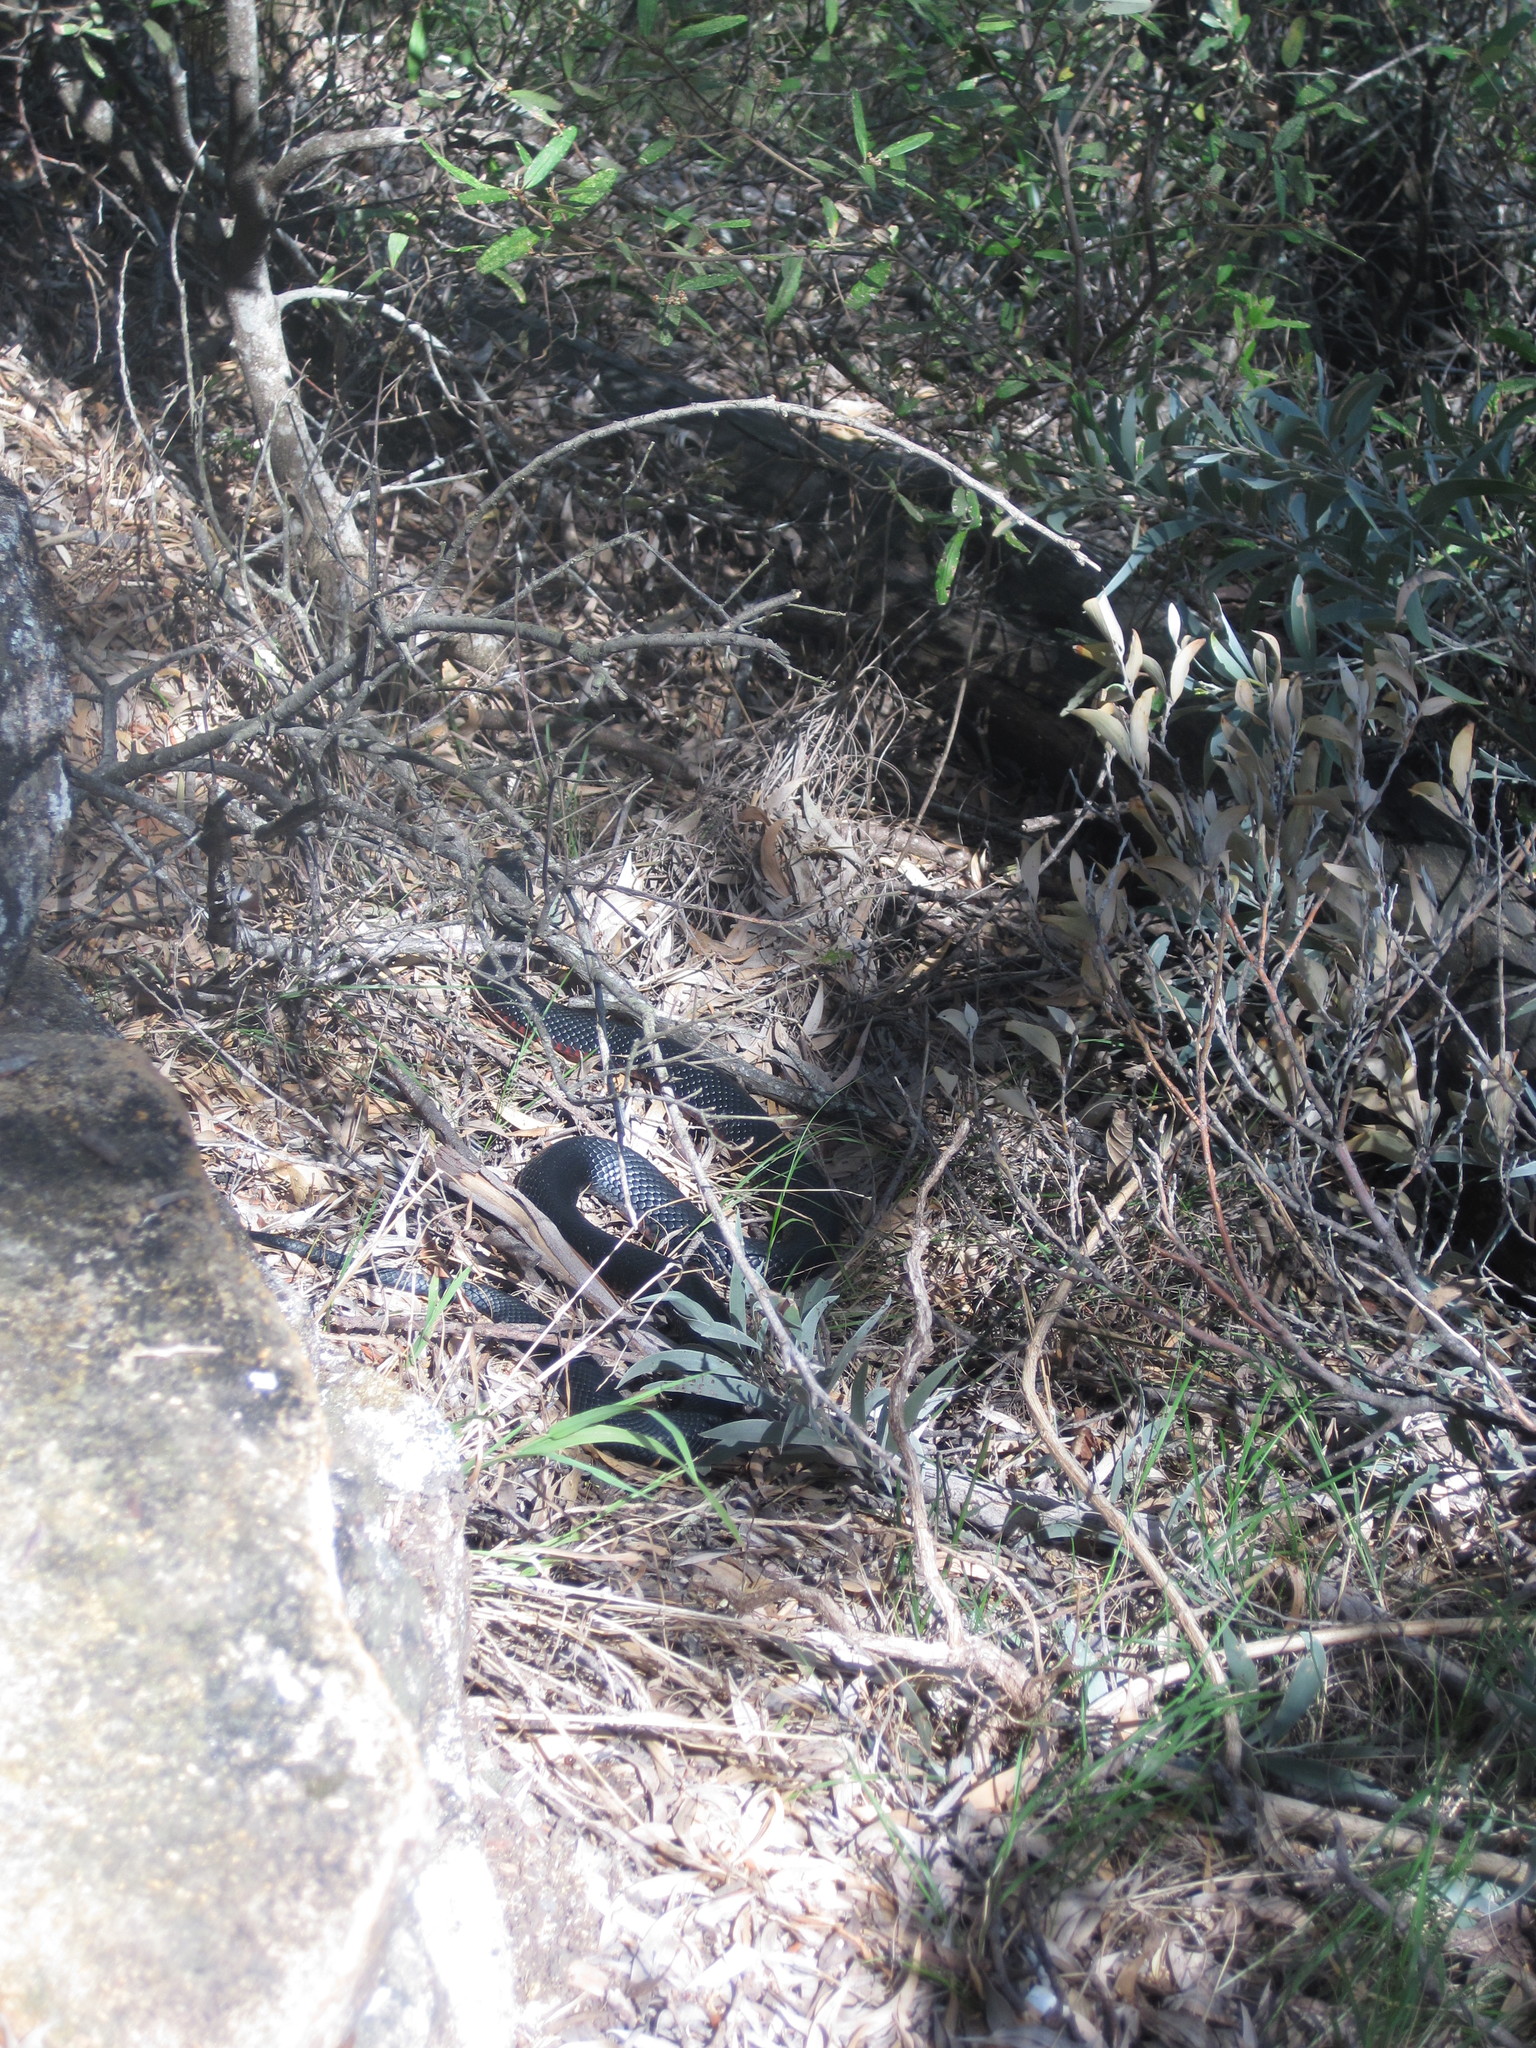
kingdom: Animalia
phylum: Chordata
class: Squamata
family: Elapidae
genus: Pseudechis
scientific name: Pseudechis porphyriacus
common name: Australian black snake
